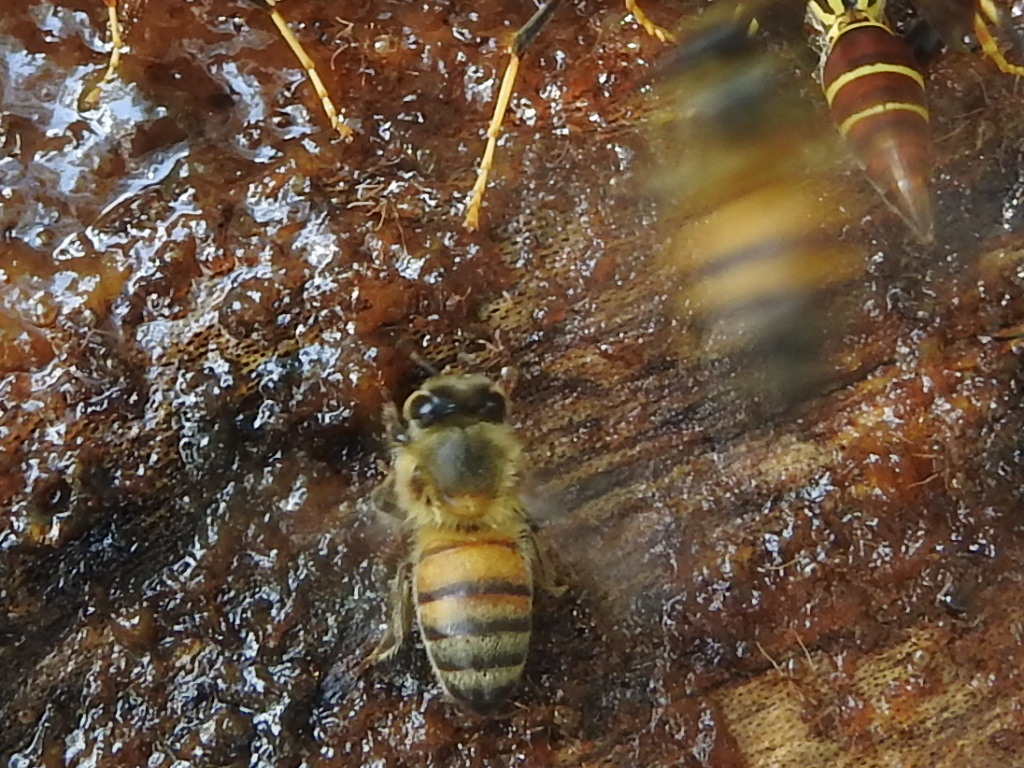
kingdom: Animalia
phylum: Arthropoda
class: Insecta
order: Hymenoptera
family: Apidae
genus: Apis
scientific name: Apis mellifera
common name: Honey bee
